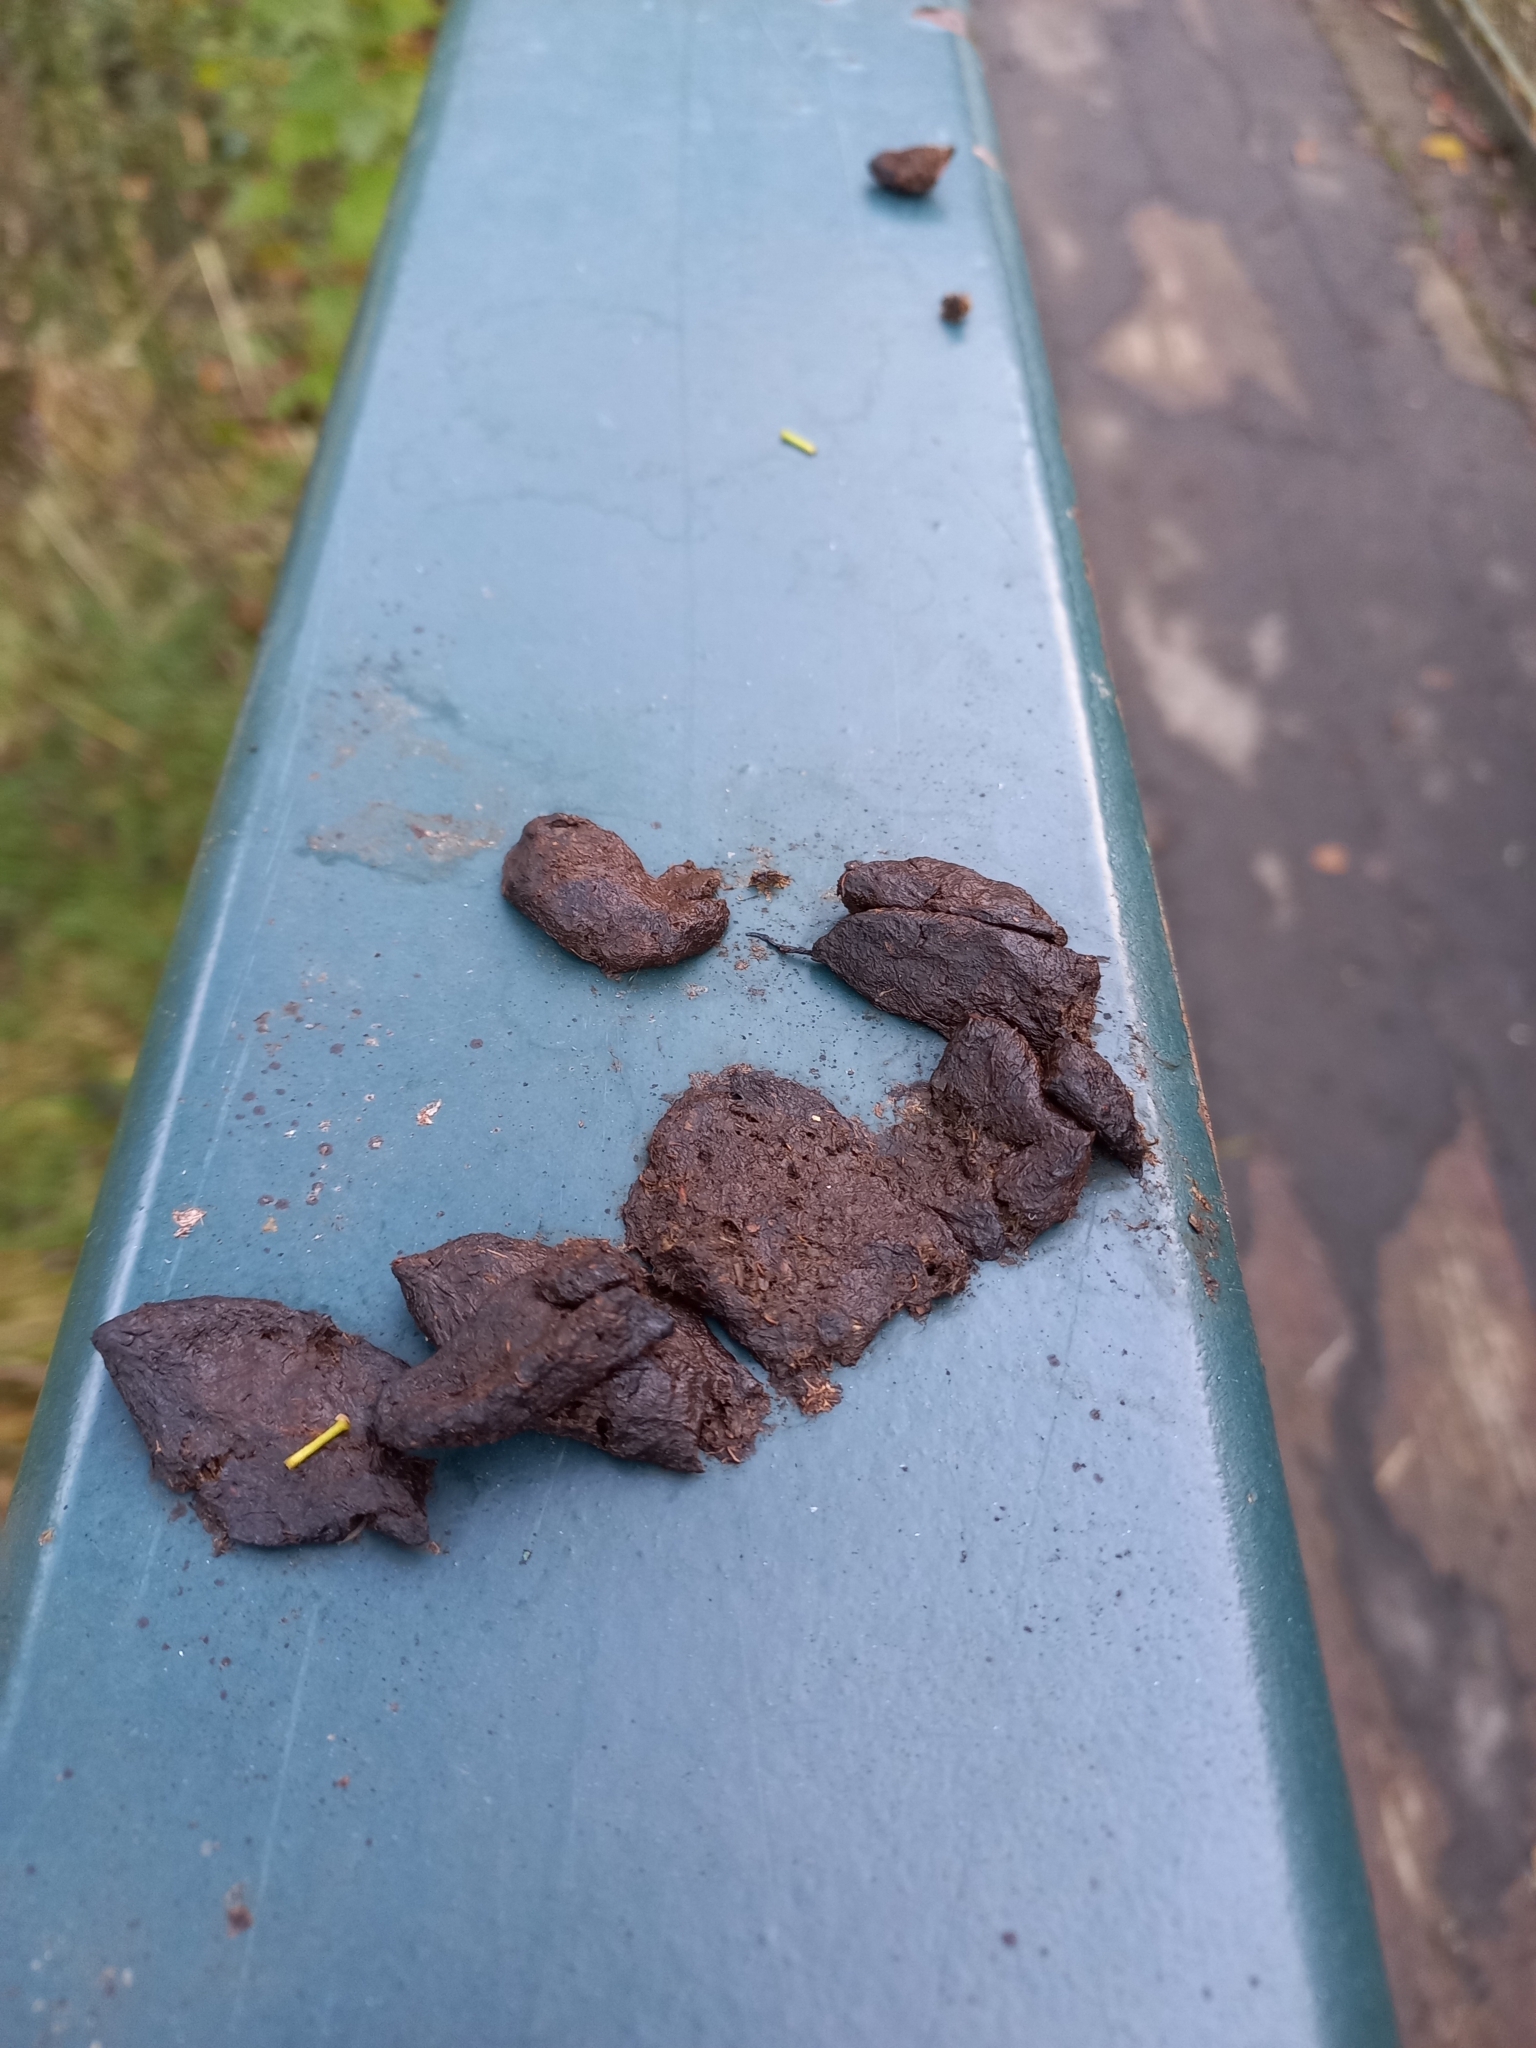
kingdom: Animalia
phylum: Chordata
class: Mammalia
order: Diprotodontia
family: Phalangeridae
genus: Trichosurus
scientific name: Trichosurus vulpecula
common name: Common brushtail
